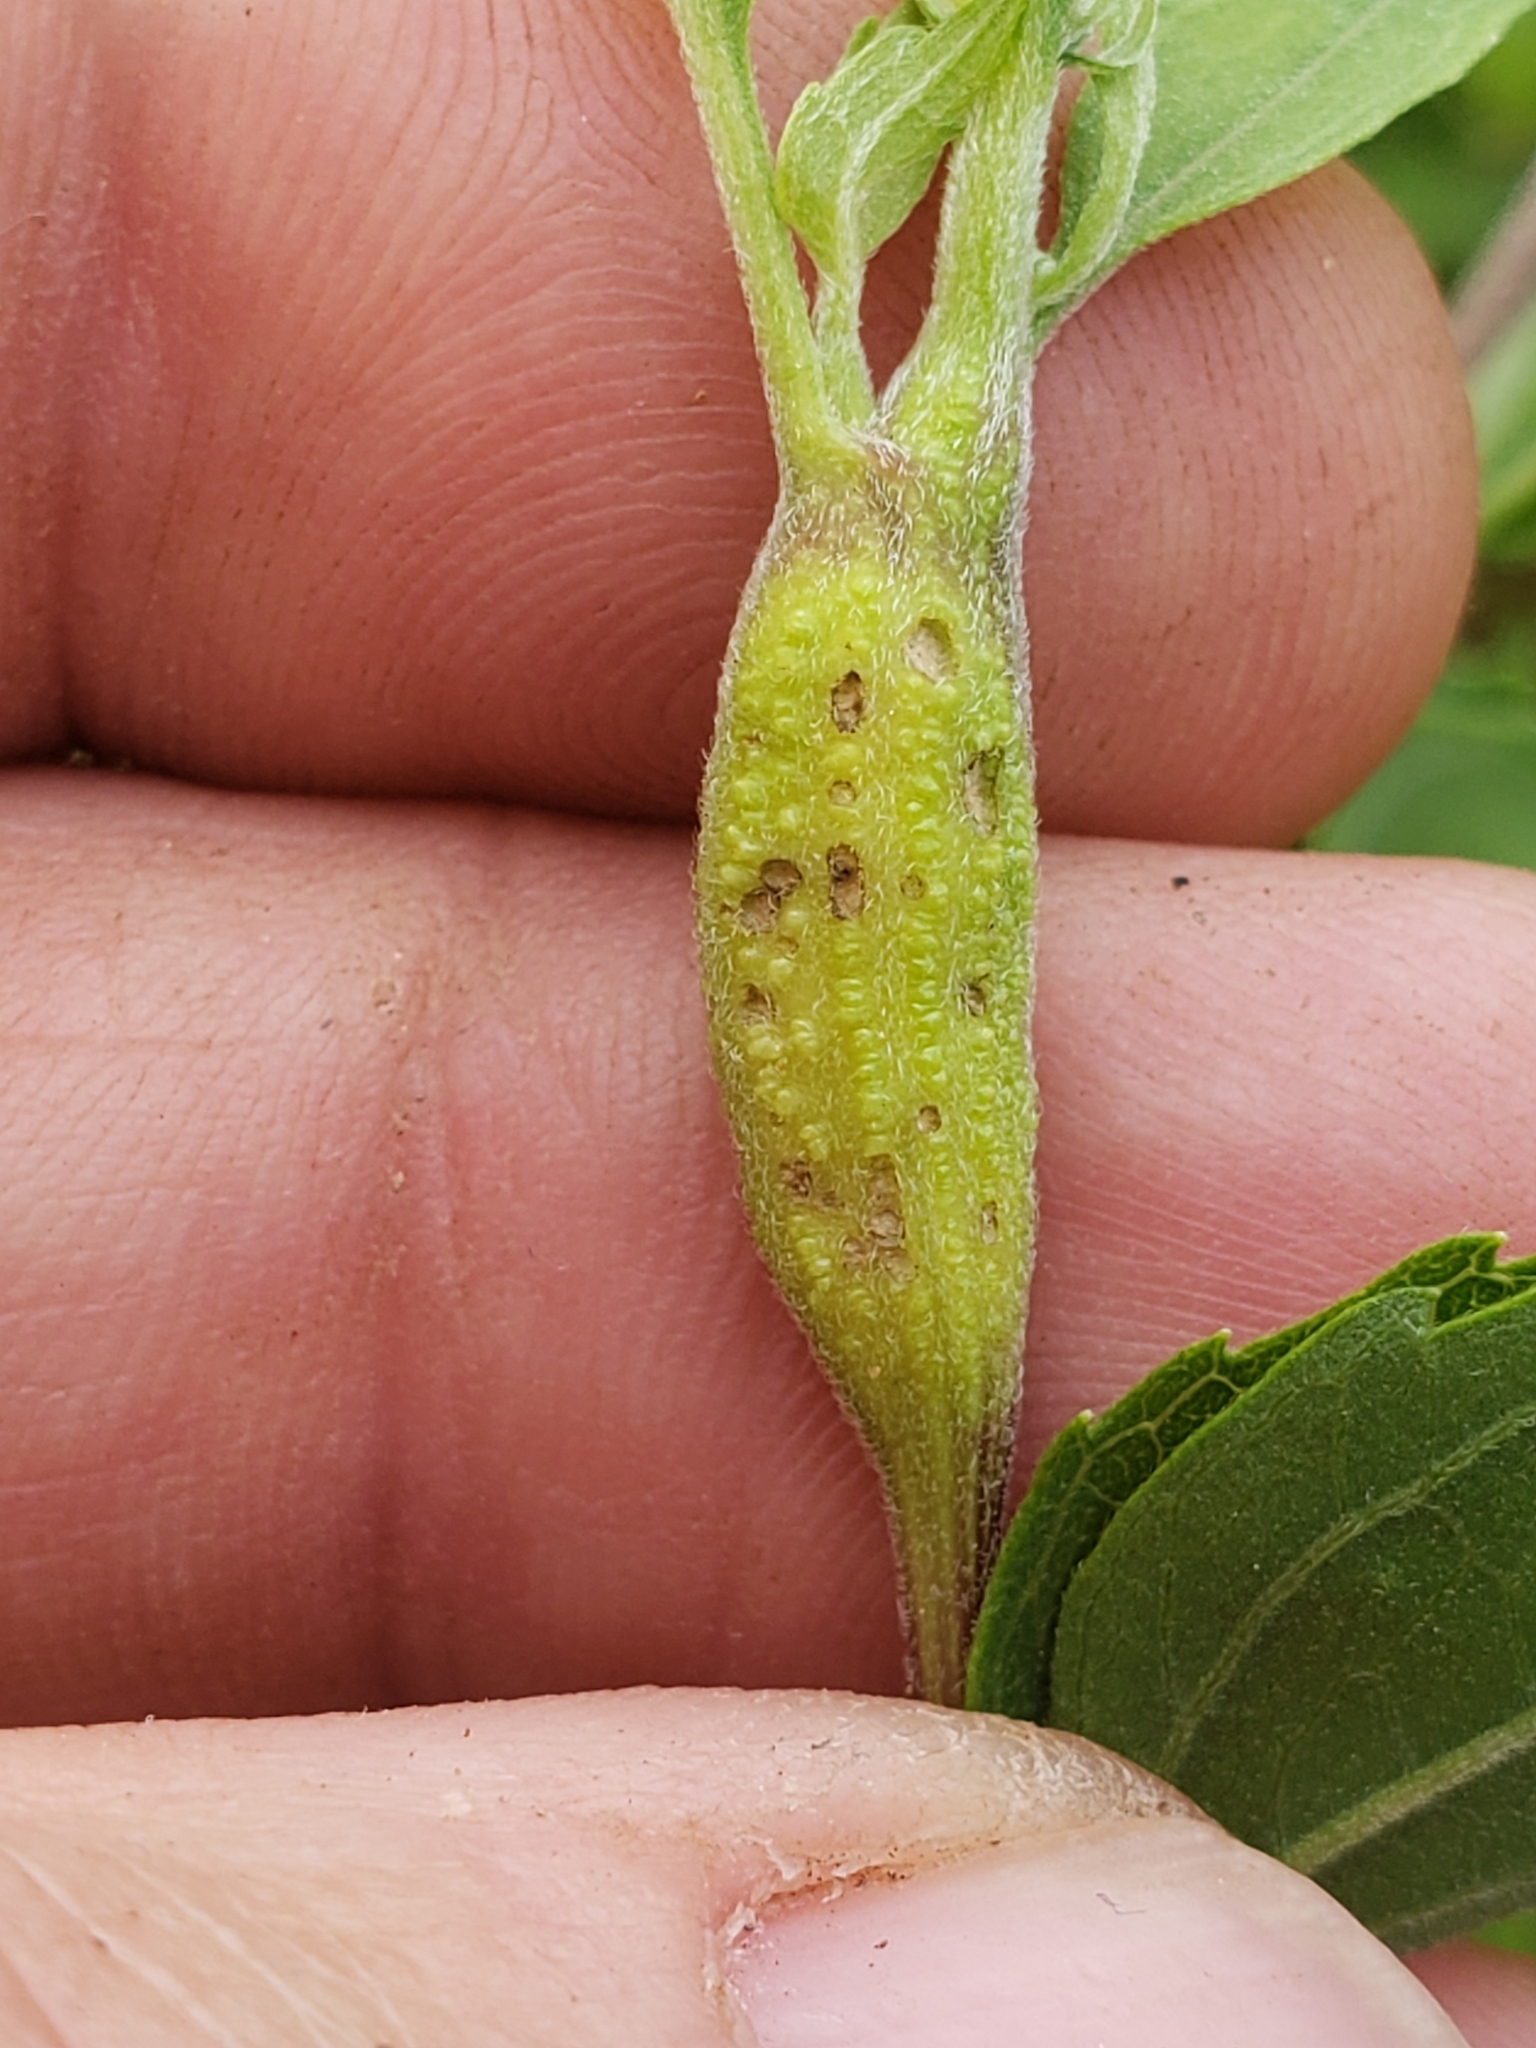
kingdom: Animalia
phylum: Arthropoda
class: Insecta
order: Diptera
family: Cecidomyiidae
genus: Neolasioptera
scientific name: Neolasioptera perfoliata
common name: Boneset stem midge
